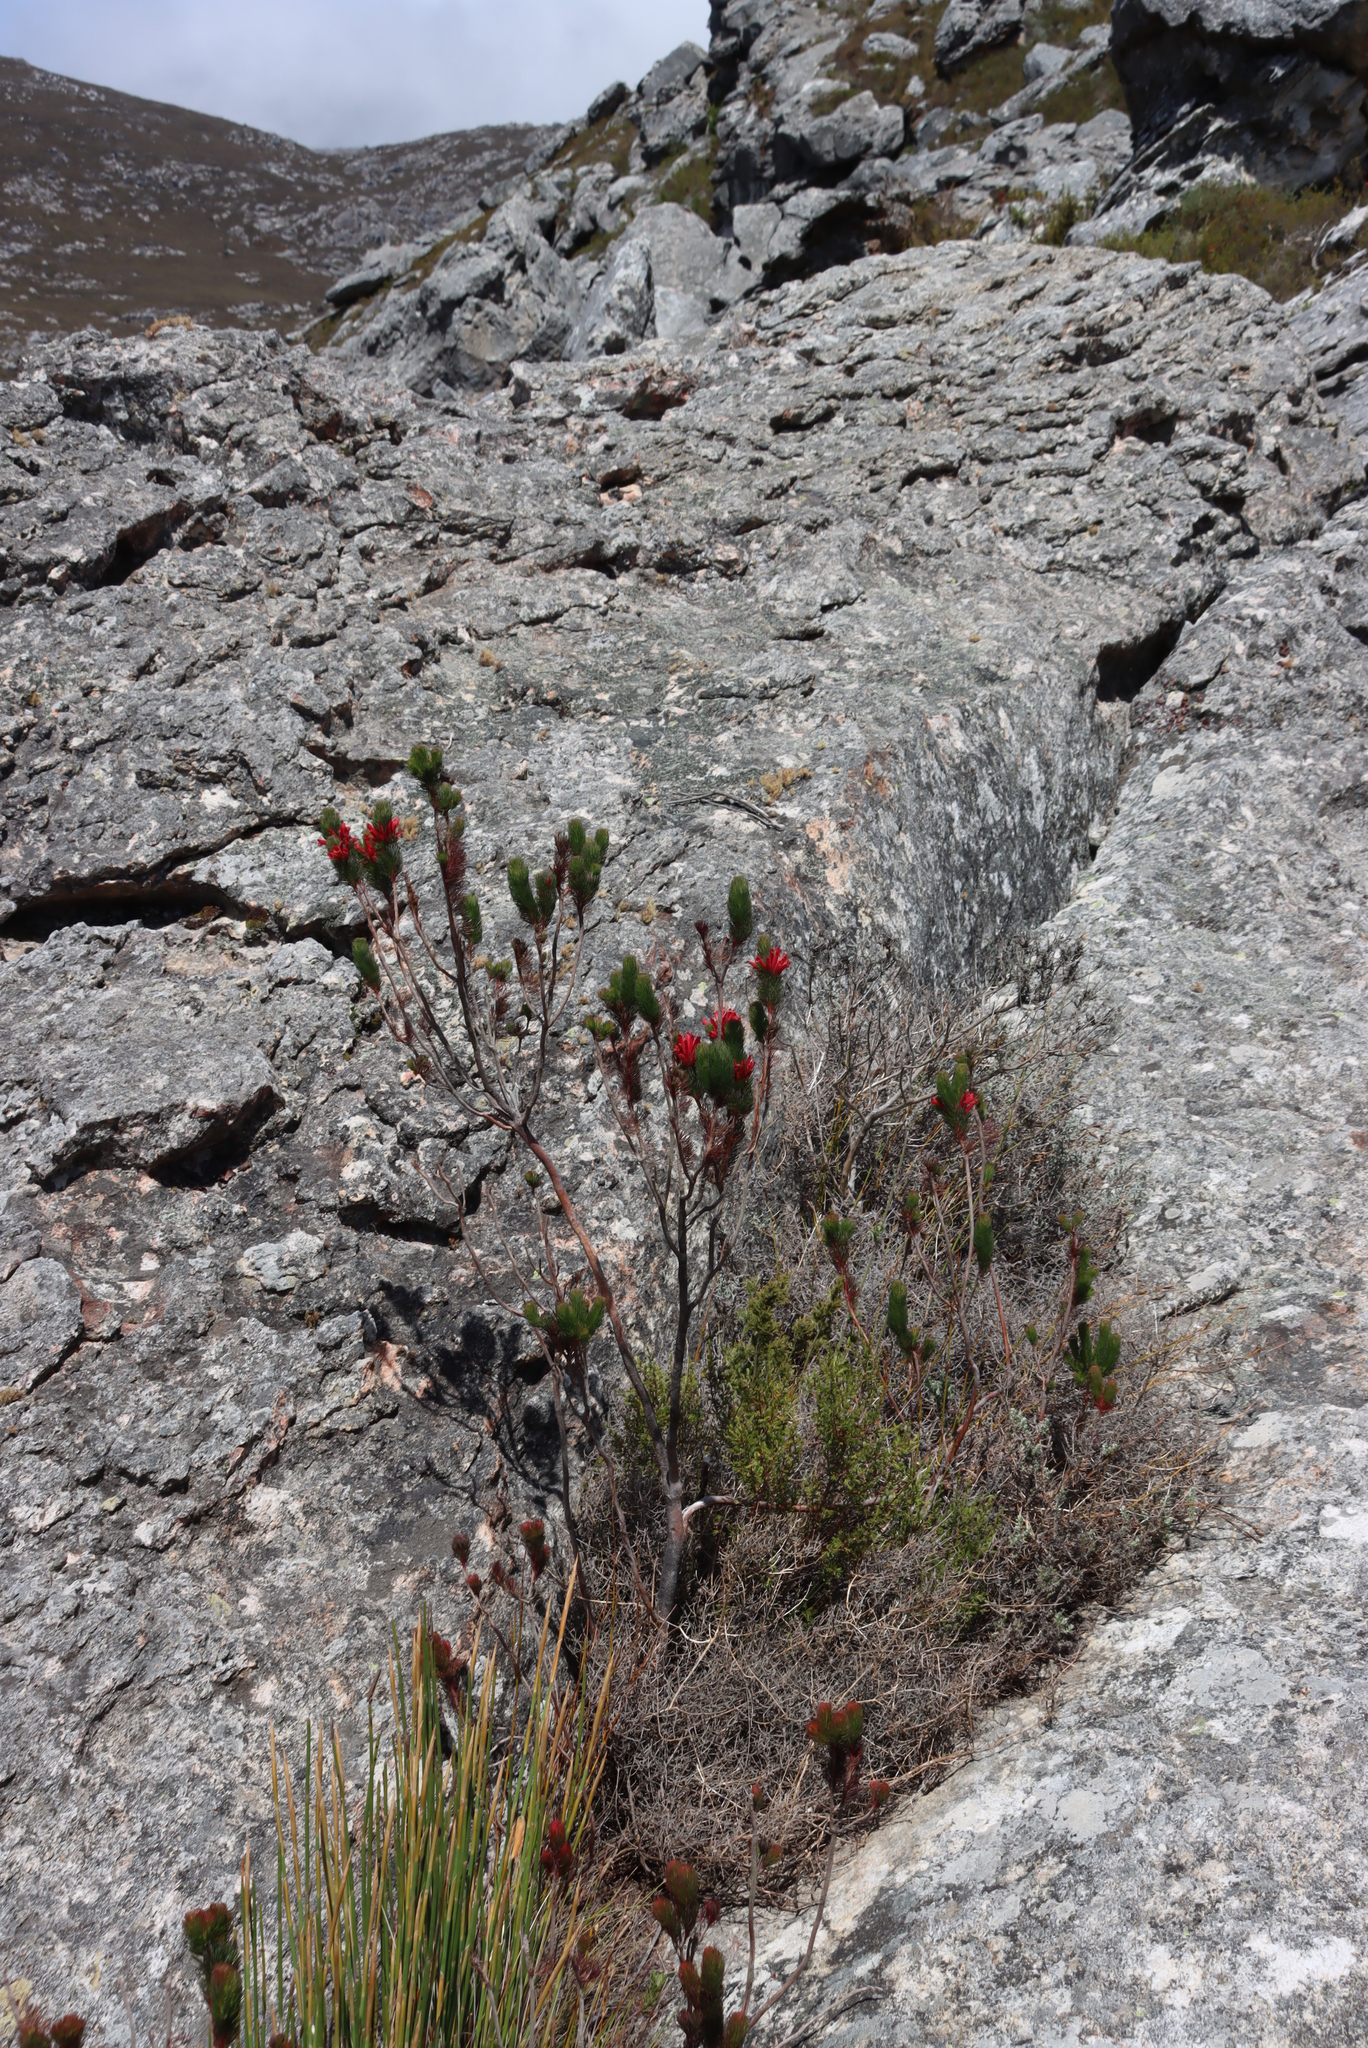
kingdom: Plantae
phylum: Tracheophyta
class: Magnoliopsida
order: Ericales
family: Ericaceae
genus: Erica
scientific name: Erica vestita
